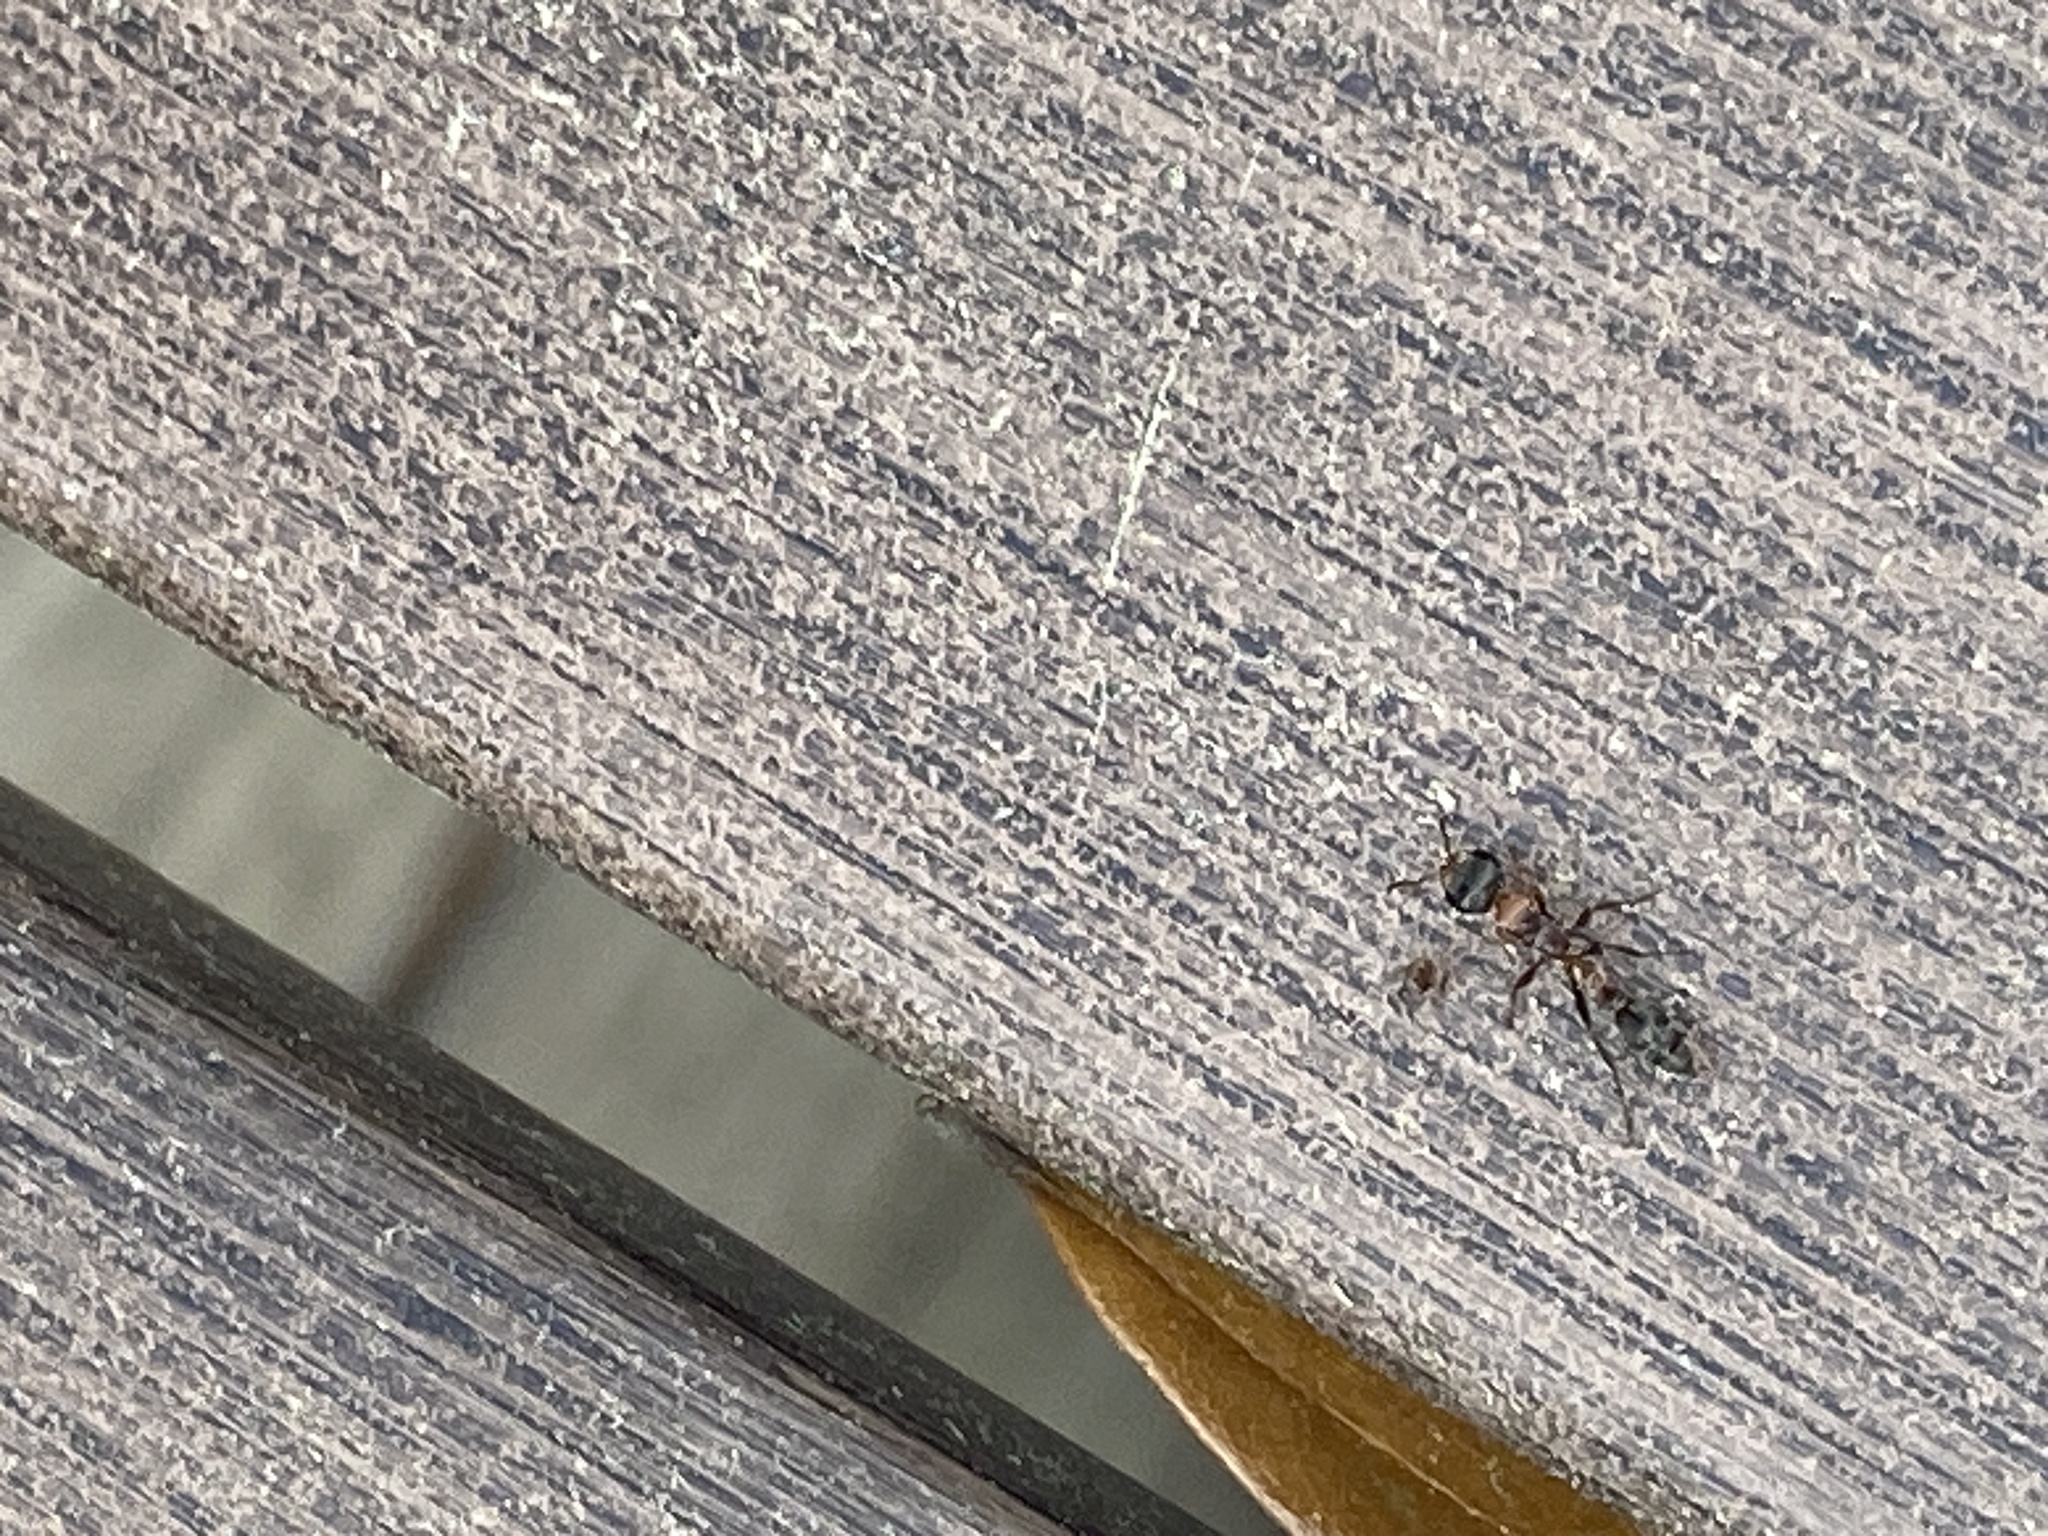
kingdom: Animalia
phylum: Arthropoda
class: Insecta
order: Hymenoptera
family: Formicidae
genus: Pseudomyrmex
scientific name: Pseudomyrmex gracilis
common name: Graceful twig ant
